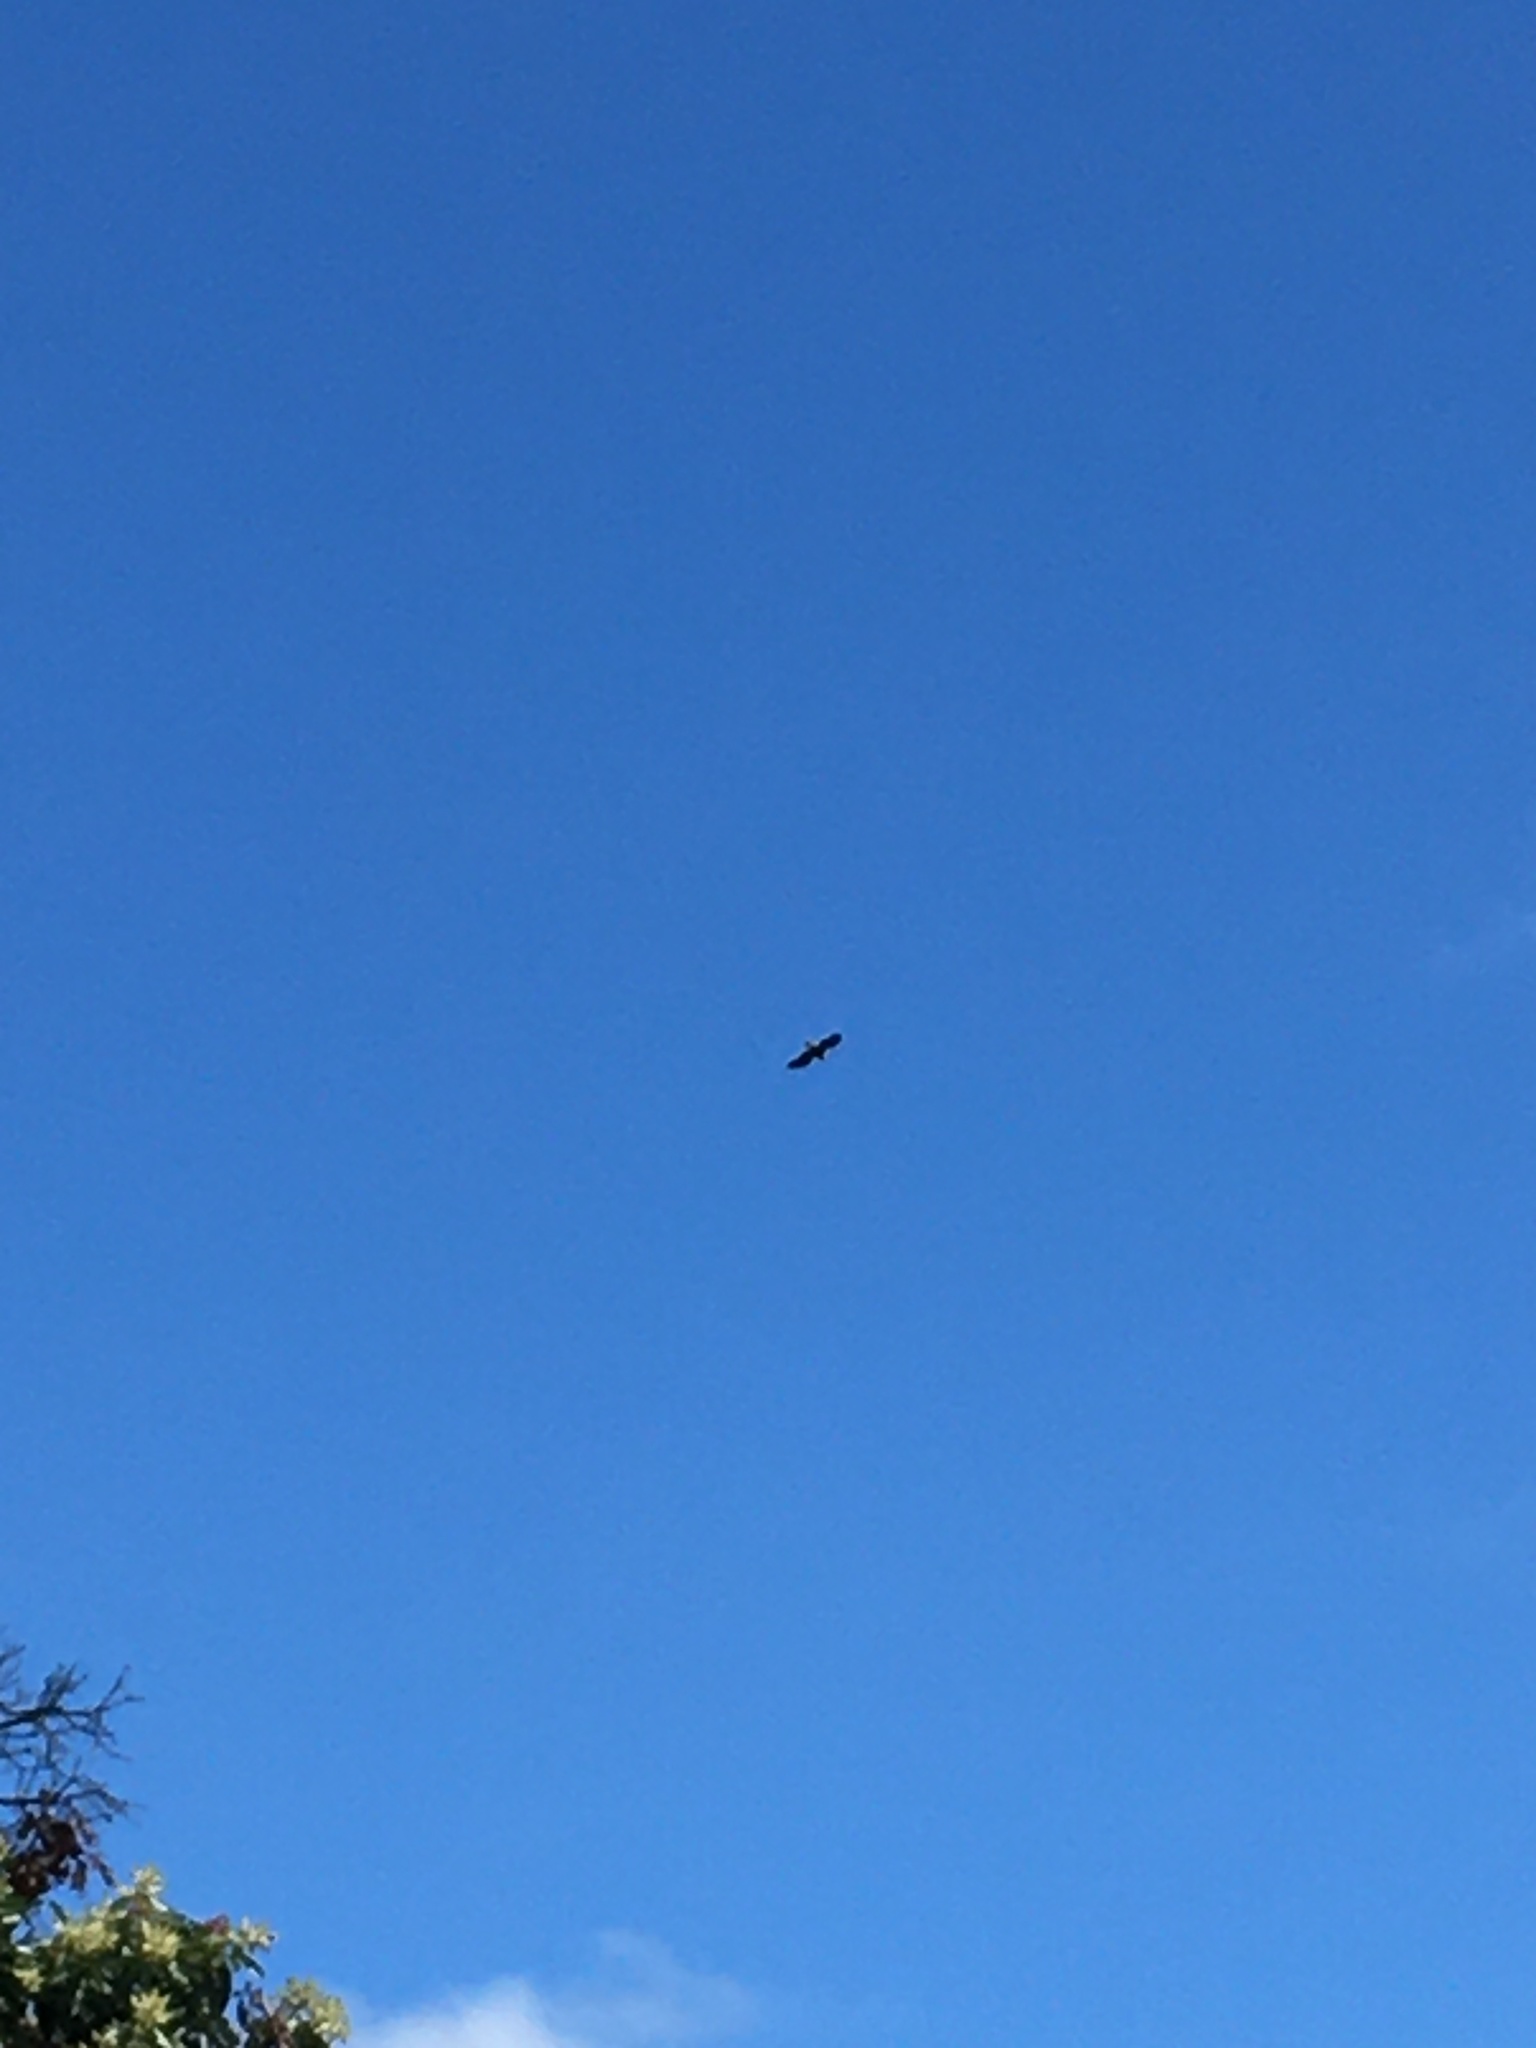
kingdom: Animalia
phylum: Chordata
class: Aves
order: Accipitriformes
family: Accipitridae
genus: Haliaeetus
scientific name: Haliaeetus leucocephalus
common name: Bald eagle
